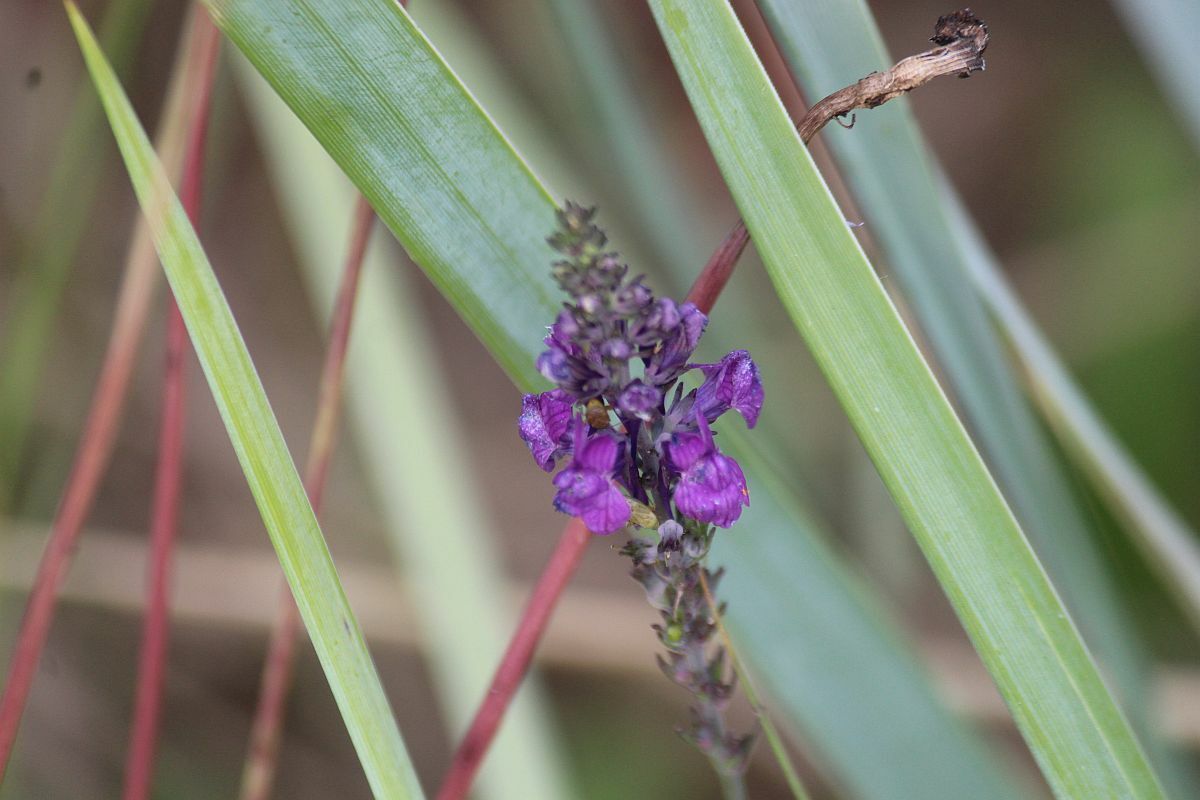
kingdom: Plantae
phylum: Tracheophyta
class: Magnoliopsida
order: Lamiales
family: Plantaginaceae
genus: Linaria
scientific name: Linaria purpurea
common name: Purple toadflax
